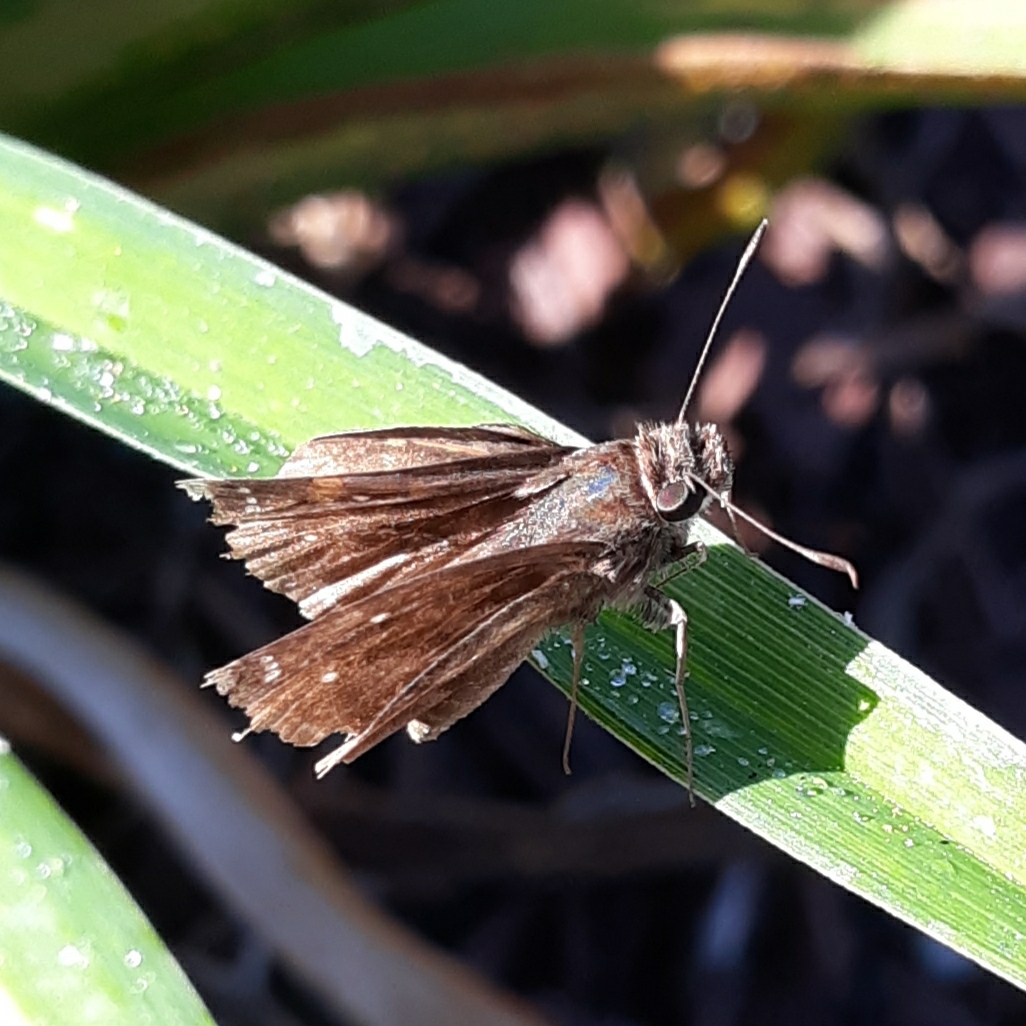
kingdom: Animalia
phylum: Arthropoda
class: Insecta
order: Lepidoptera
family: Hesperiidae
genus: Lerema
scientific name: Lerema accius
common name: Clouded skipper
